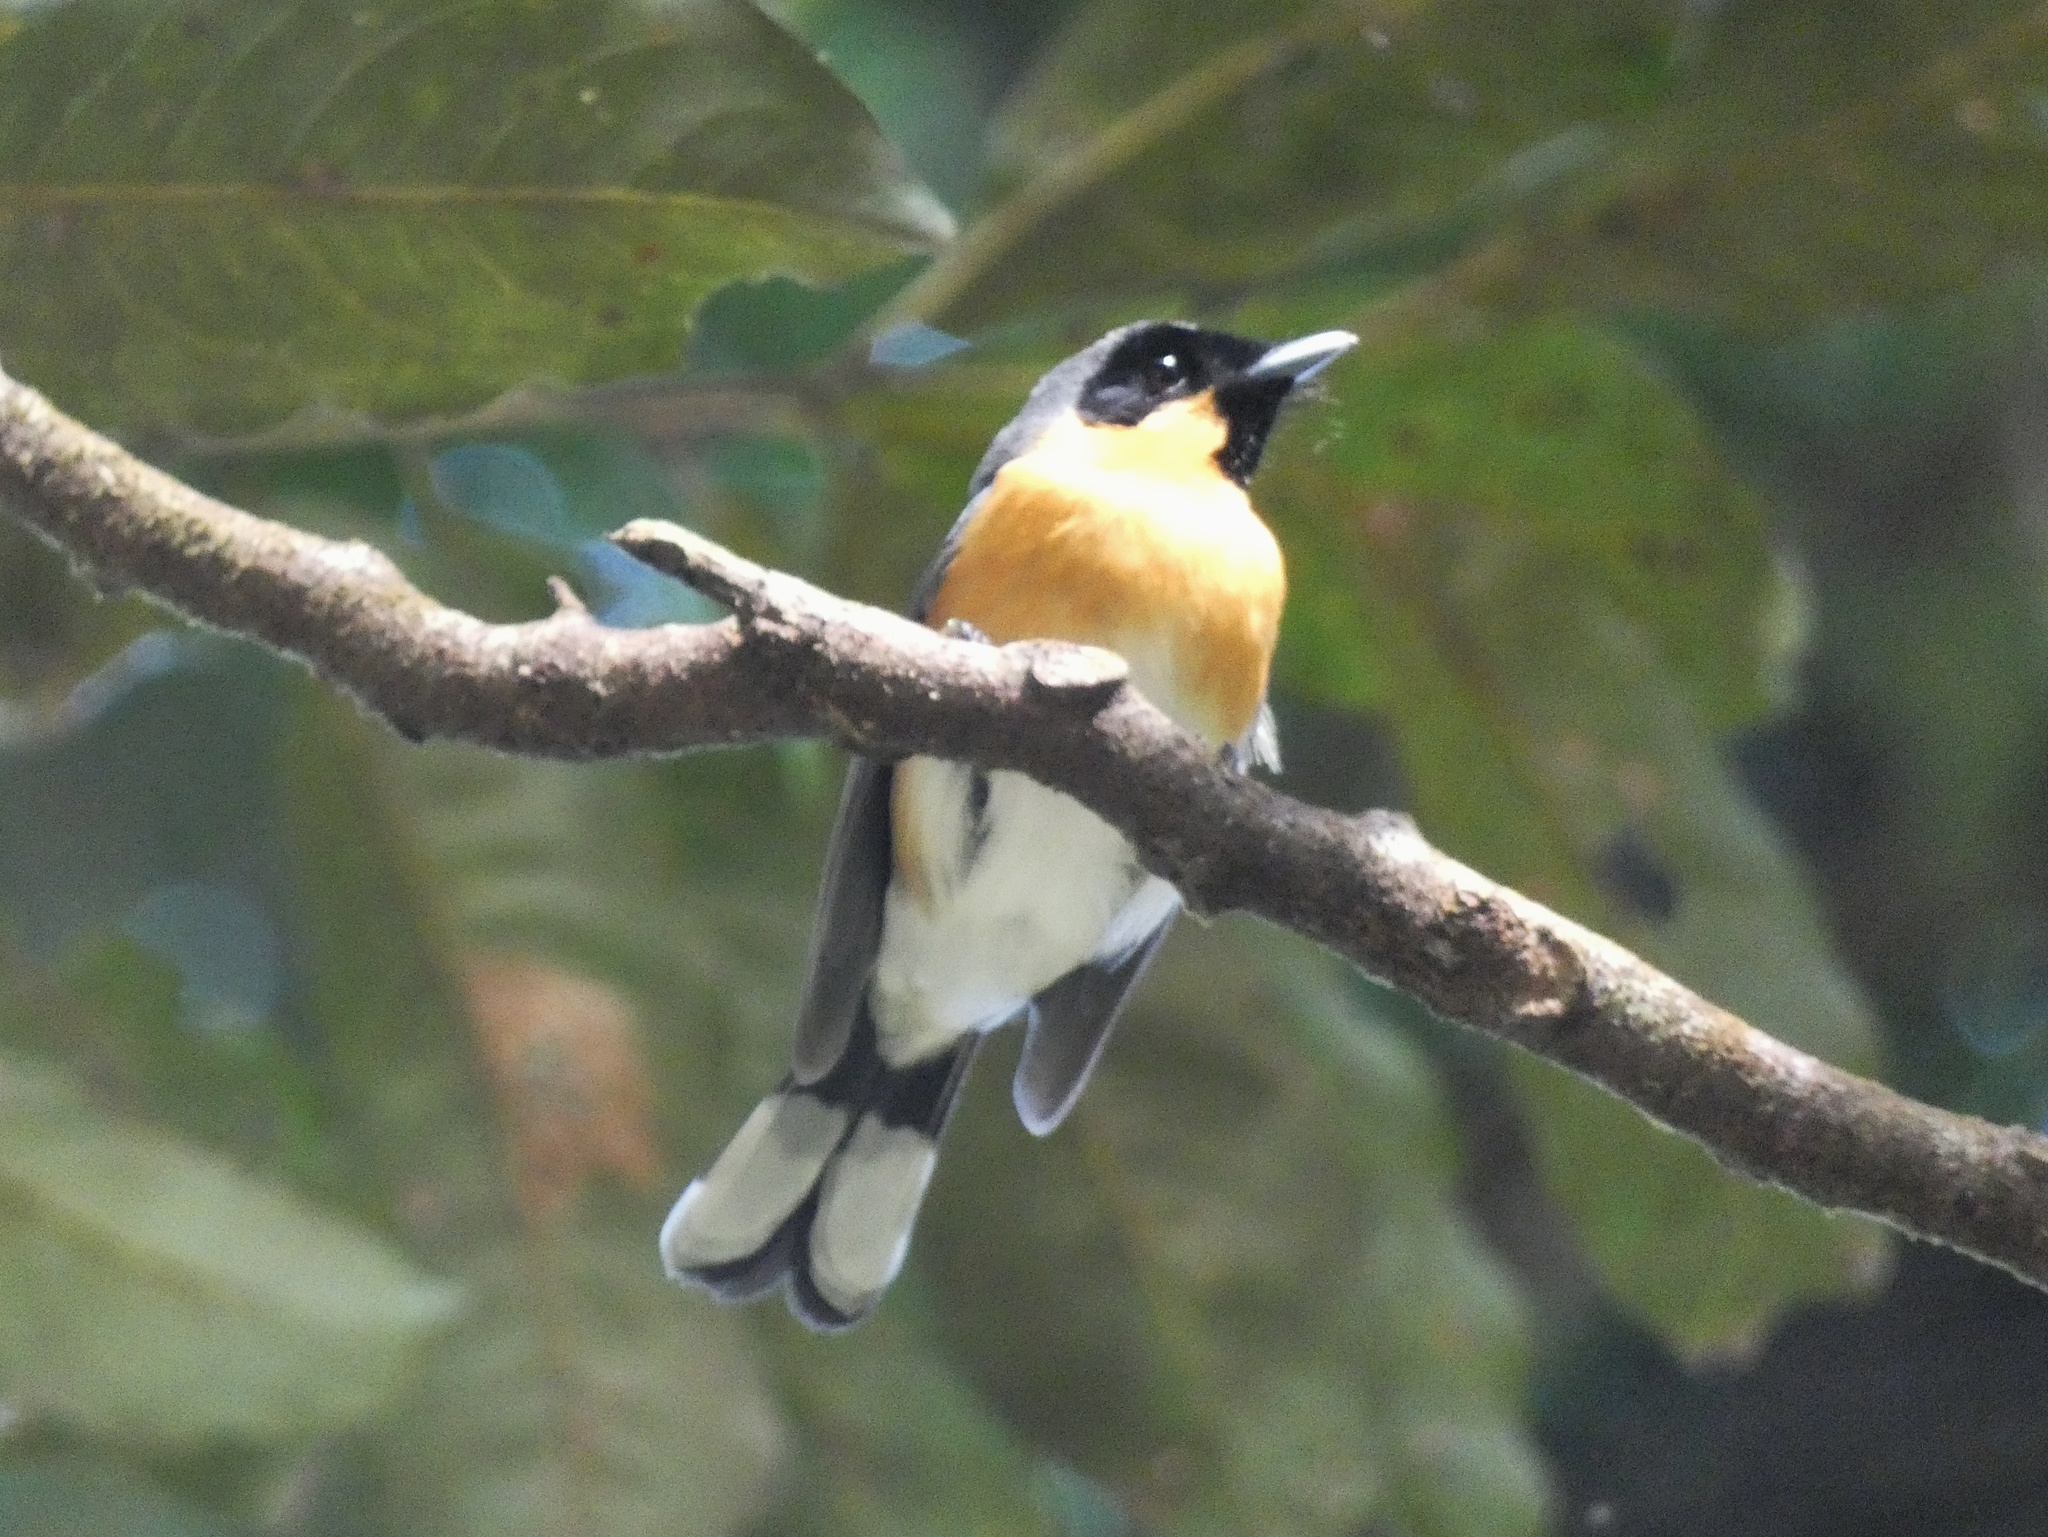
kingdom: Animalia
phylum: Chordata
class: Aves
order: Passeriformes
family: Monarchidae
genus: Symposiachrus
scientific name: Symposiachrus trivirgatus
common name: Spectacled monarch
